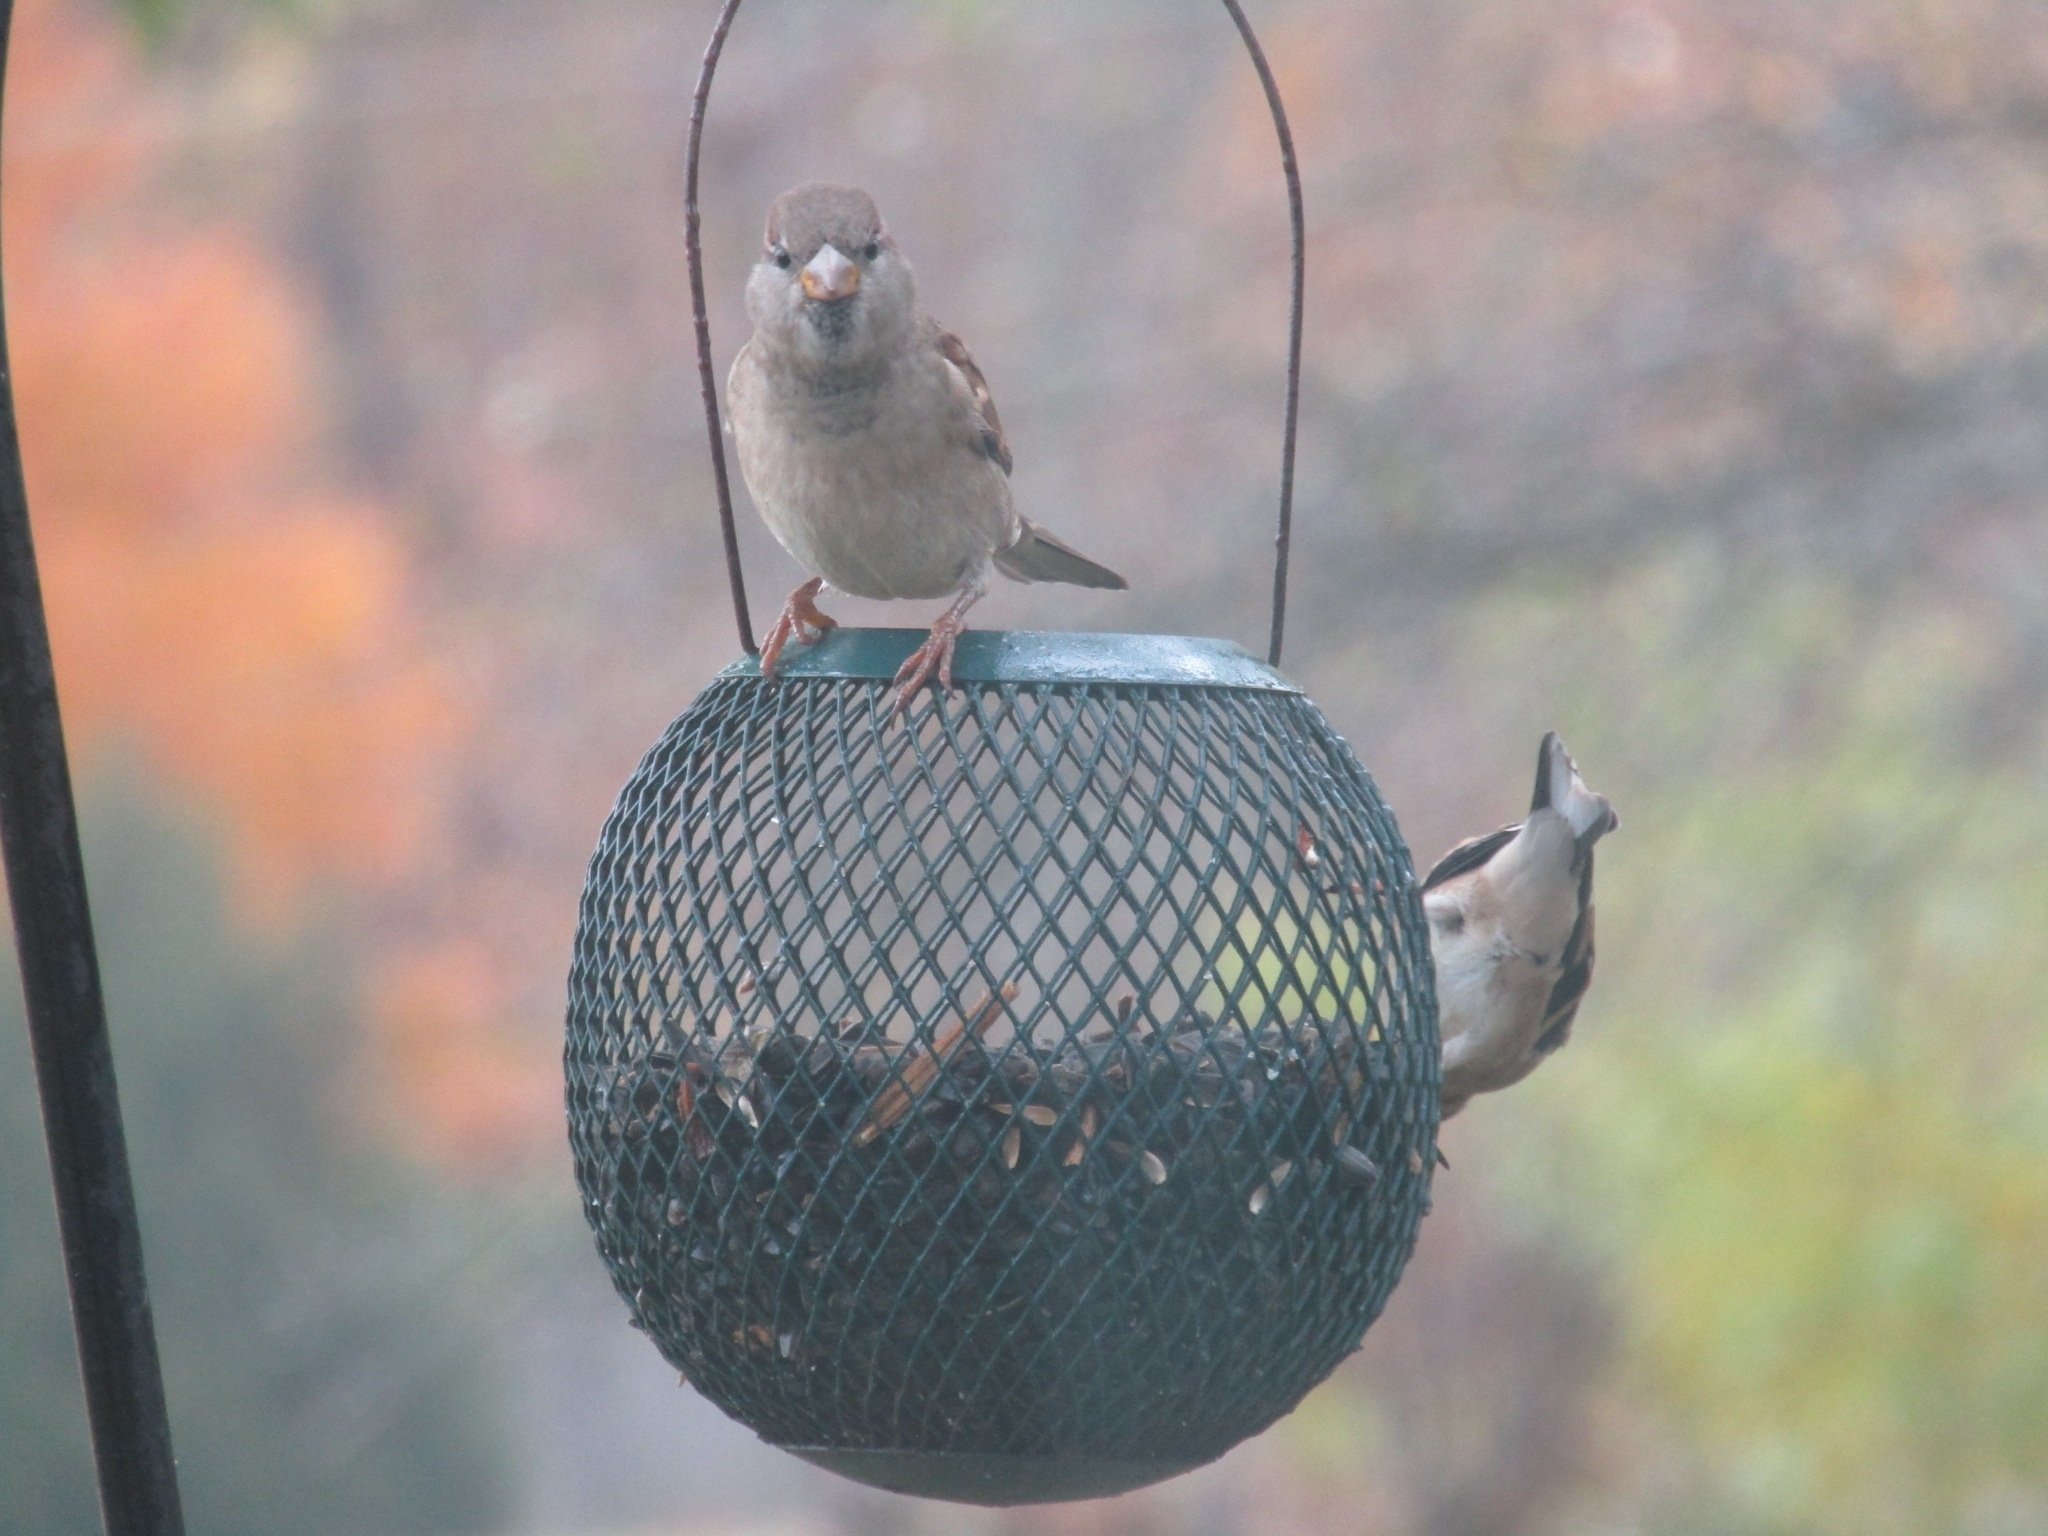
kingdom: Animalia
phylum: Chordata
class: Aves
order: Passeriformes
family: Passeridae
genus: Passer
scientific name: Passer domesticus
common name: House sparrow
